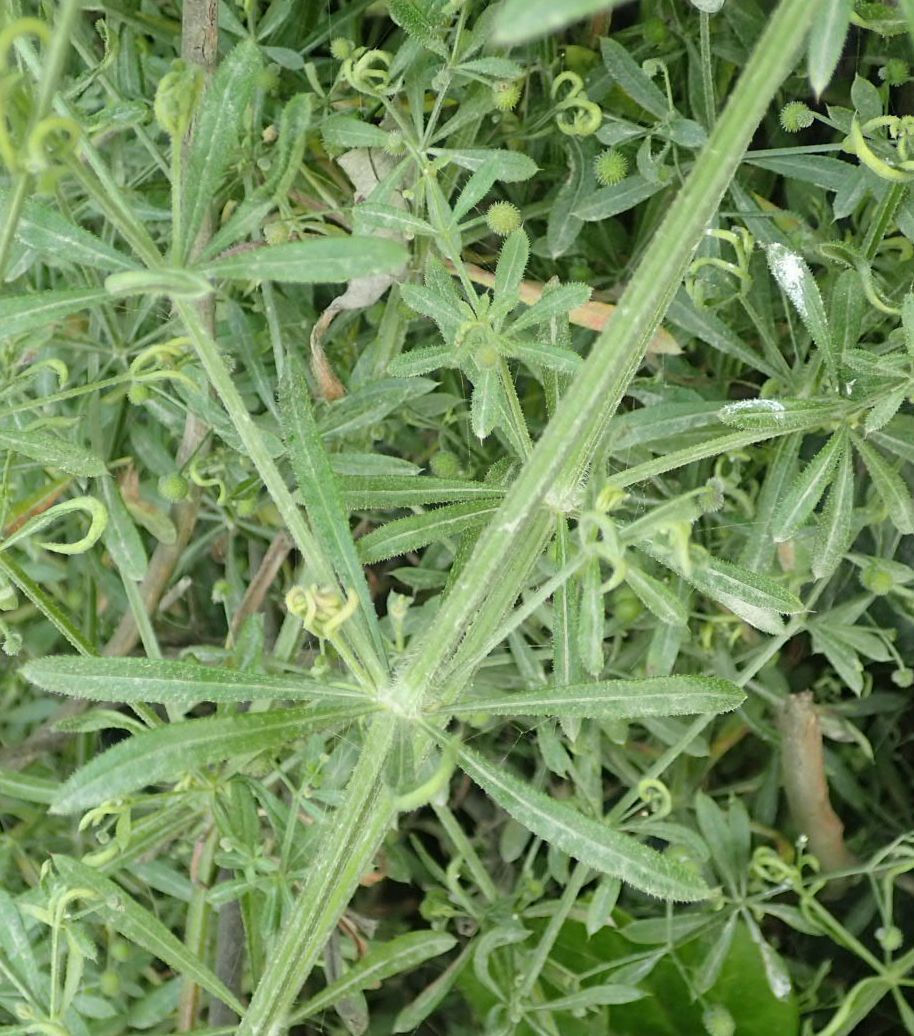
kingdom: Plantae
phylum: Tracheophyta
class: Magnoliopsida
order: Gentianales
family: Rubiaceae
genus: Galium
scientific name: Galium aparine
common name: Cleavers
